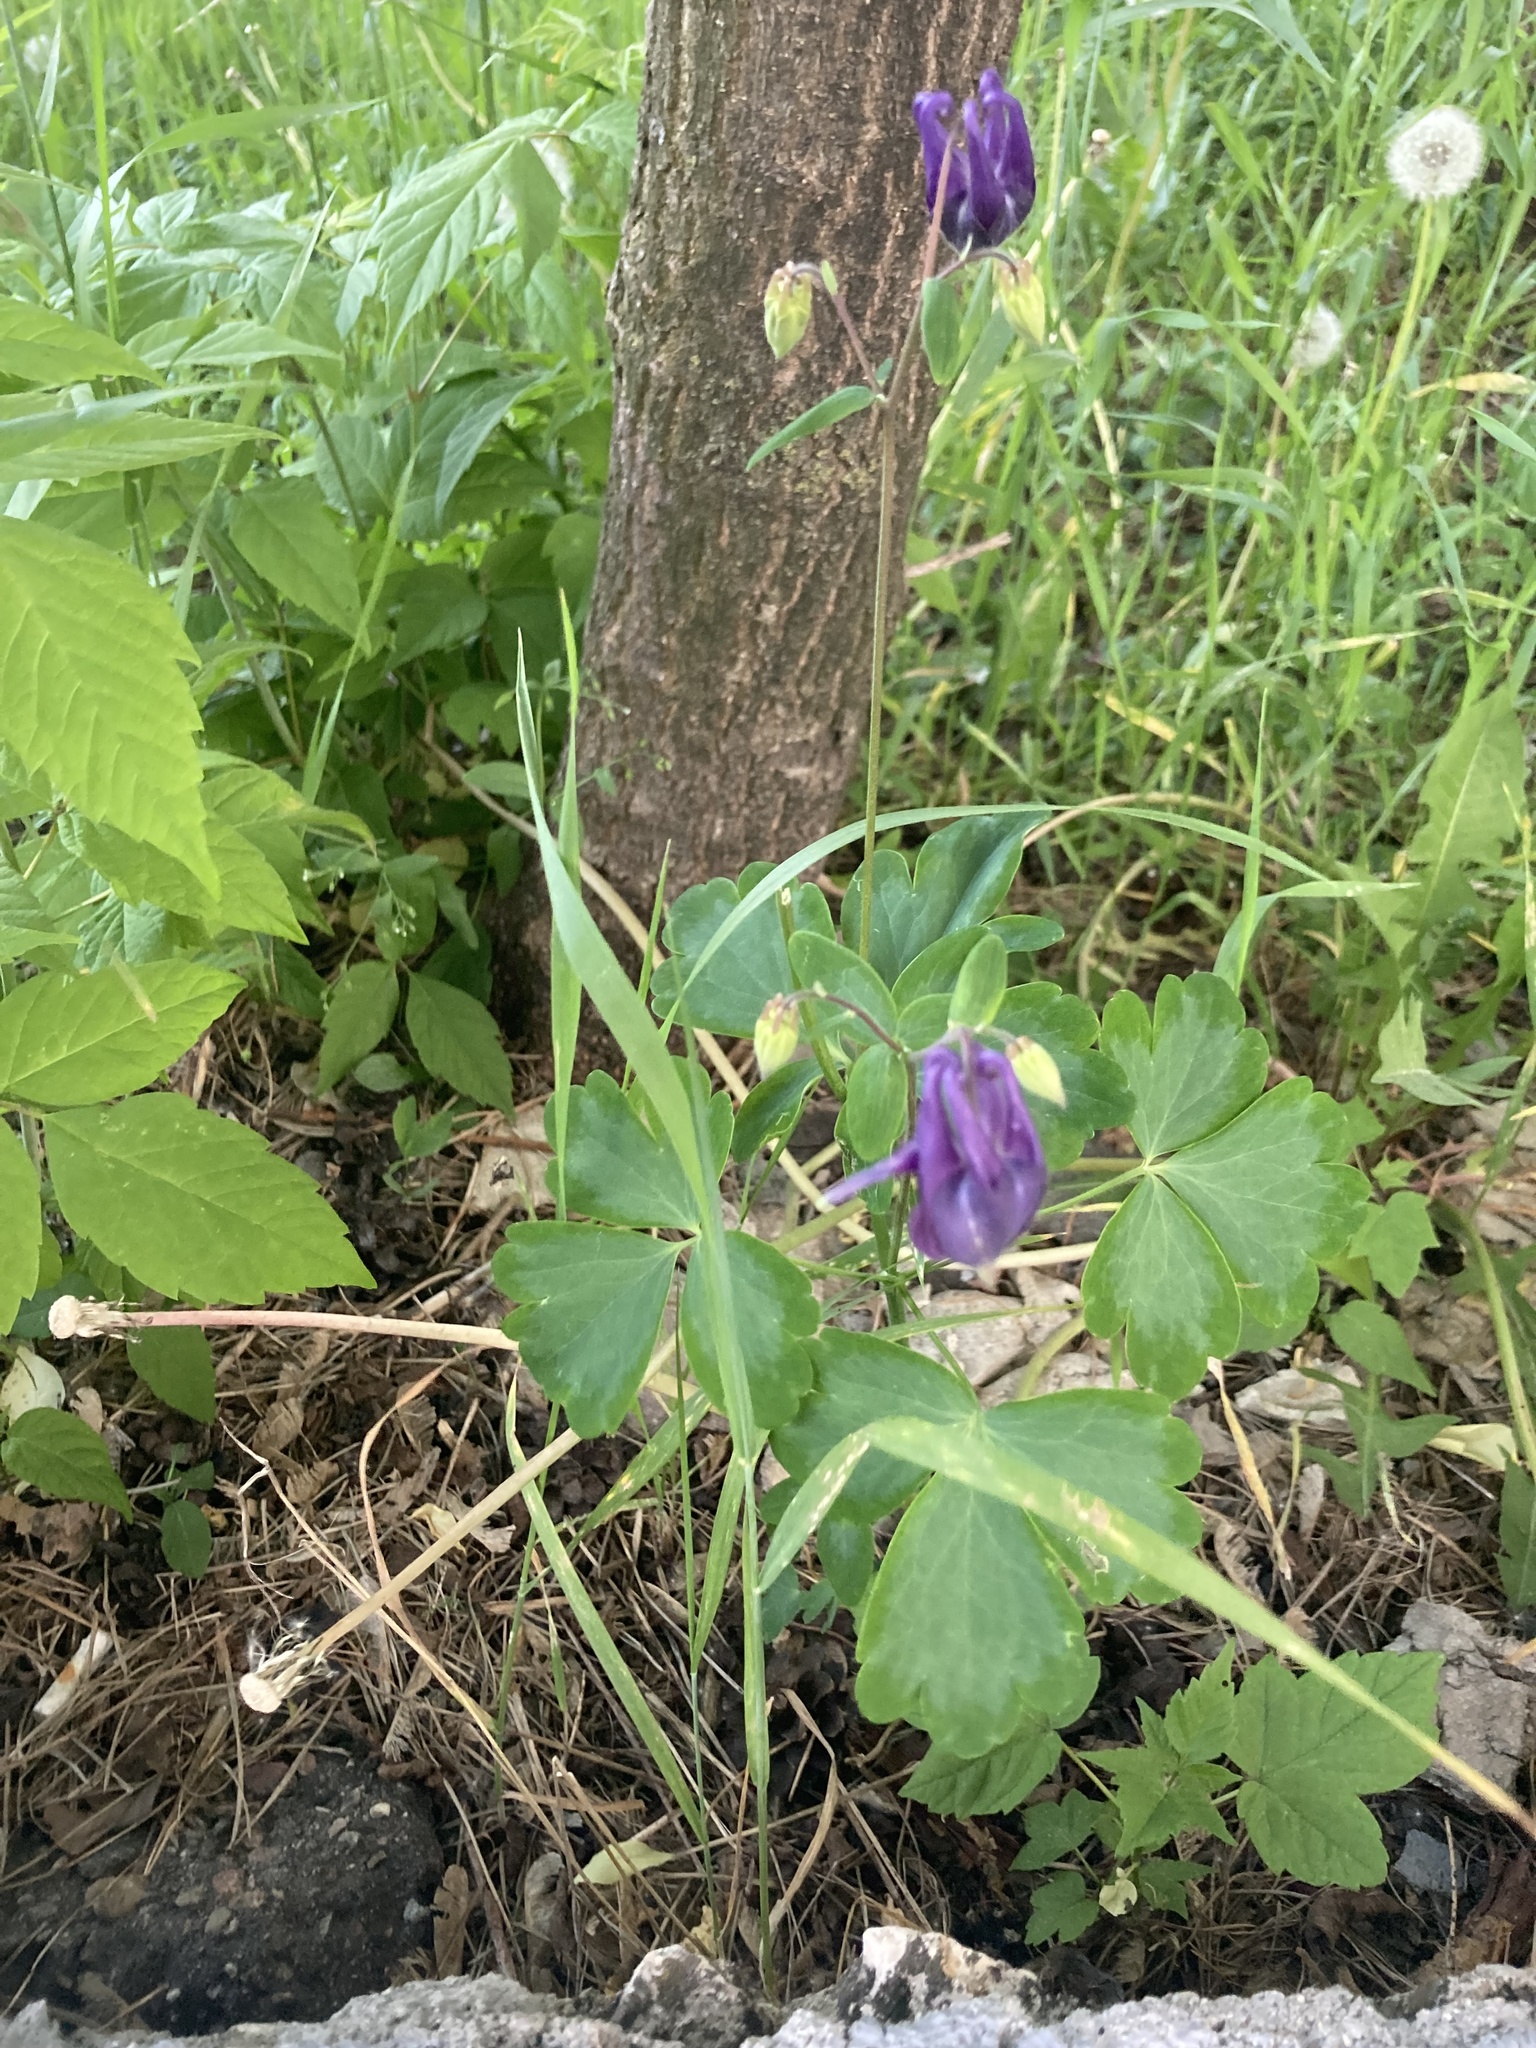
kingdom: Plantae
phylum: Tracheophyta
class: Magnoliopsida
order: Ranunculales
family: Ranunculaceae
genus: Aquilegia
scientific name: Aquilegia vulgaris
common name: Columbine
